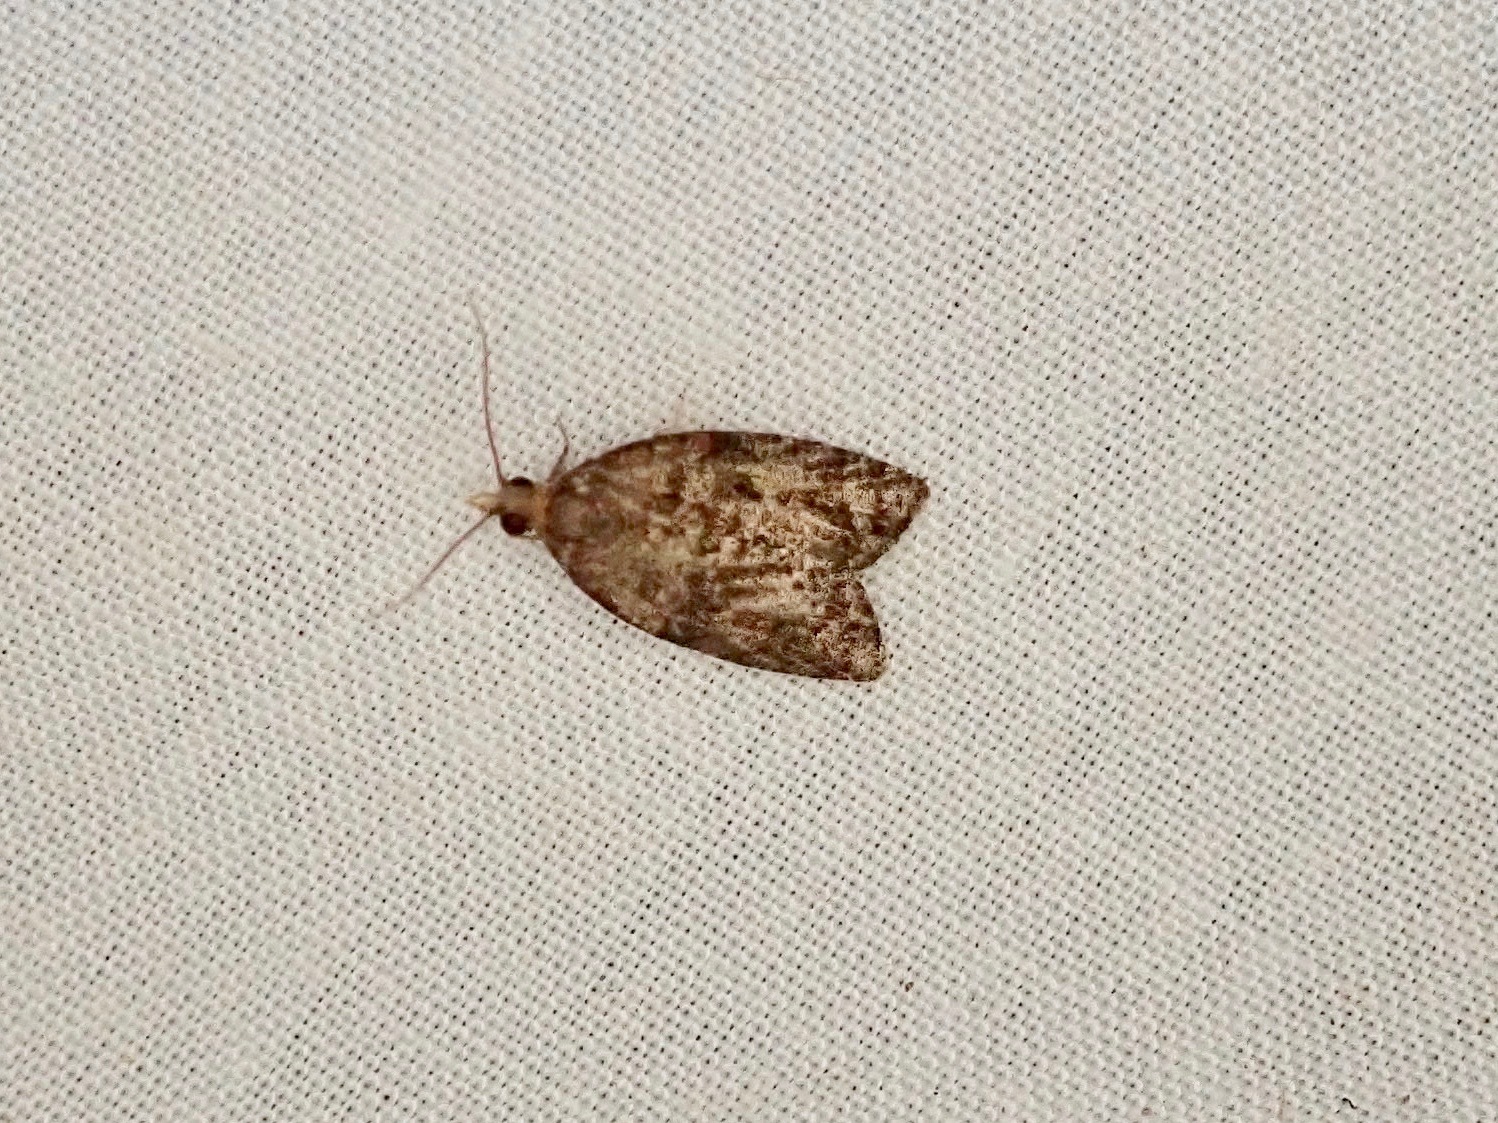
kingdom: Animalia
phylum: Arthropoda
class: Insecta
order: Lepidoptera
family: Tortricidae
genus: Capua
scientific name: Capua intractana
